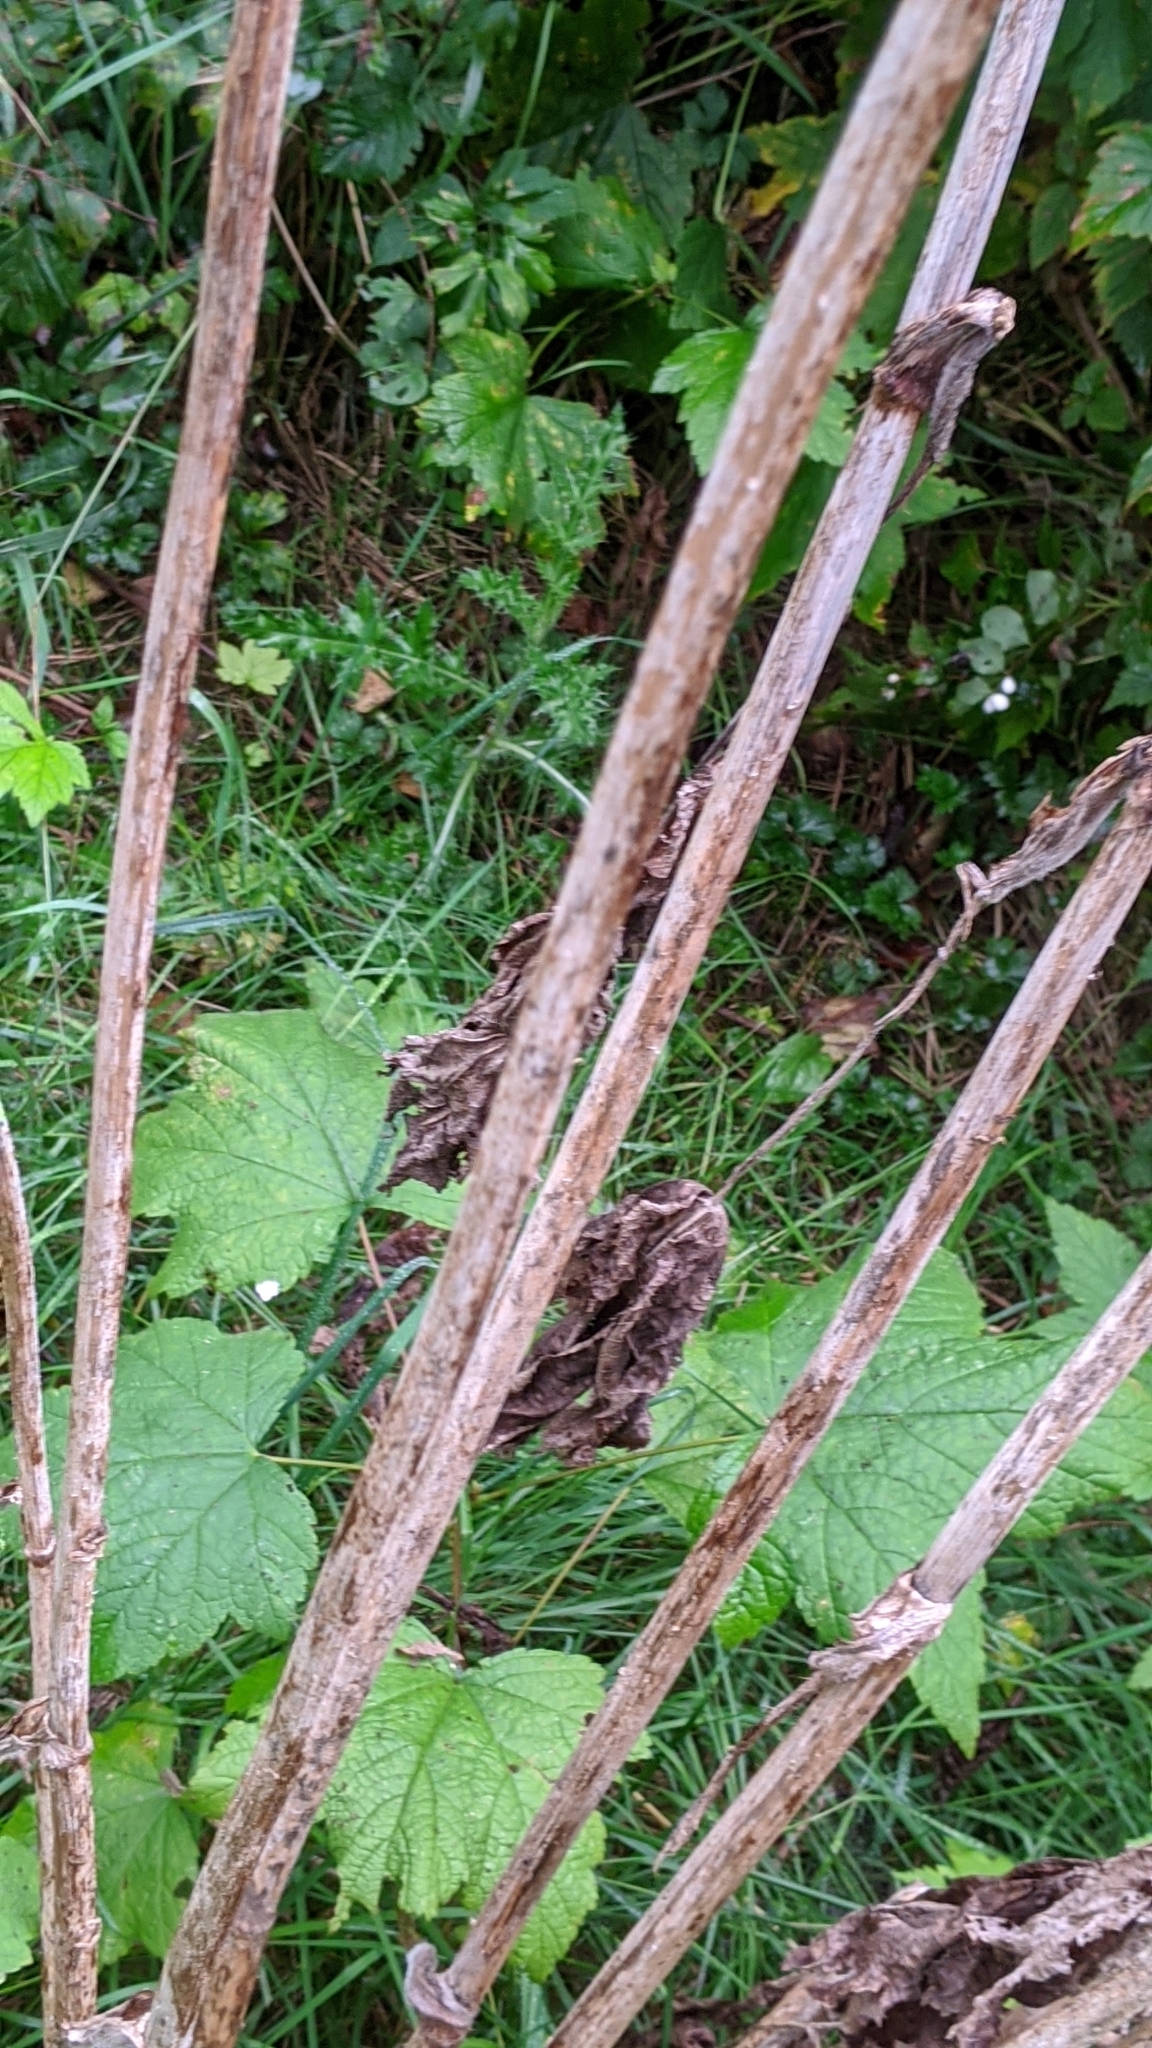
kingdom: Plantae
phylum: Tracheophyta
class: Magnoliopsida
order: Apiales
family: Apiaceae
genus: Heracleum
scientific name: Heracleum maximum
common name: American cow parsnip
